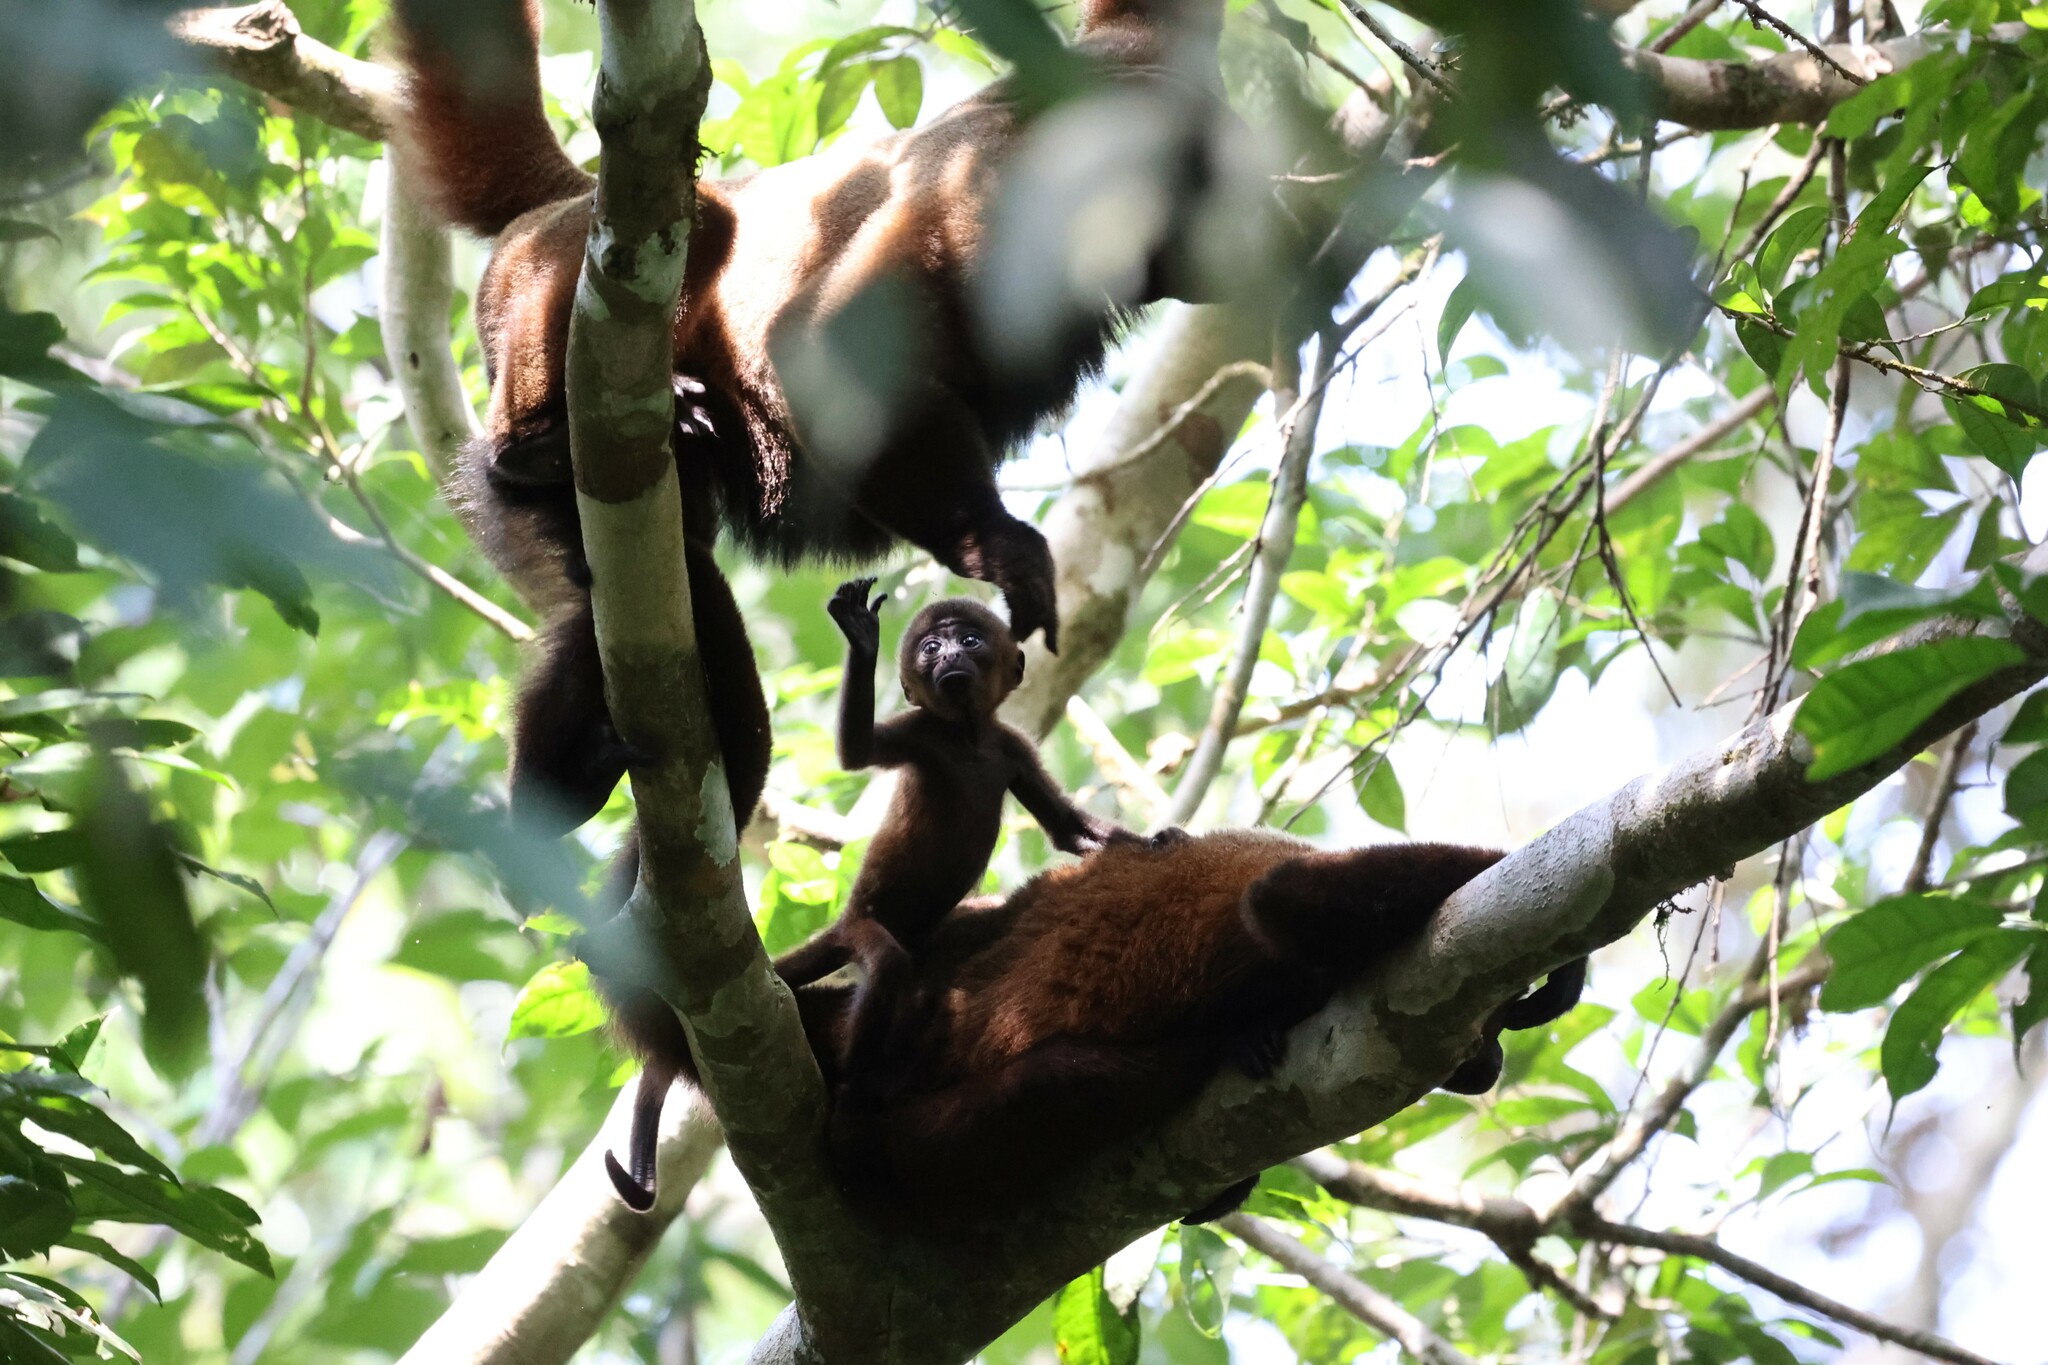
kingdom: Animalia
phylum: Chordata
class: Mammalia
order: Primates
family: Atelidae
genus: Lagothrix
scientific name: Lagothrix lagothricha
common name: Brown woolly monkey
